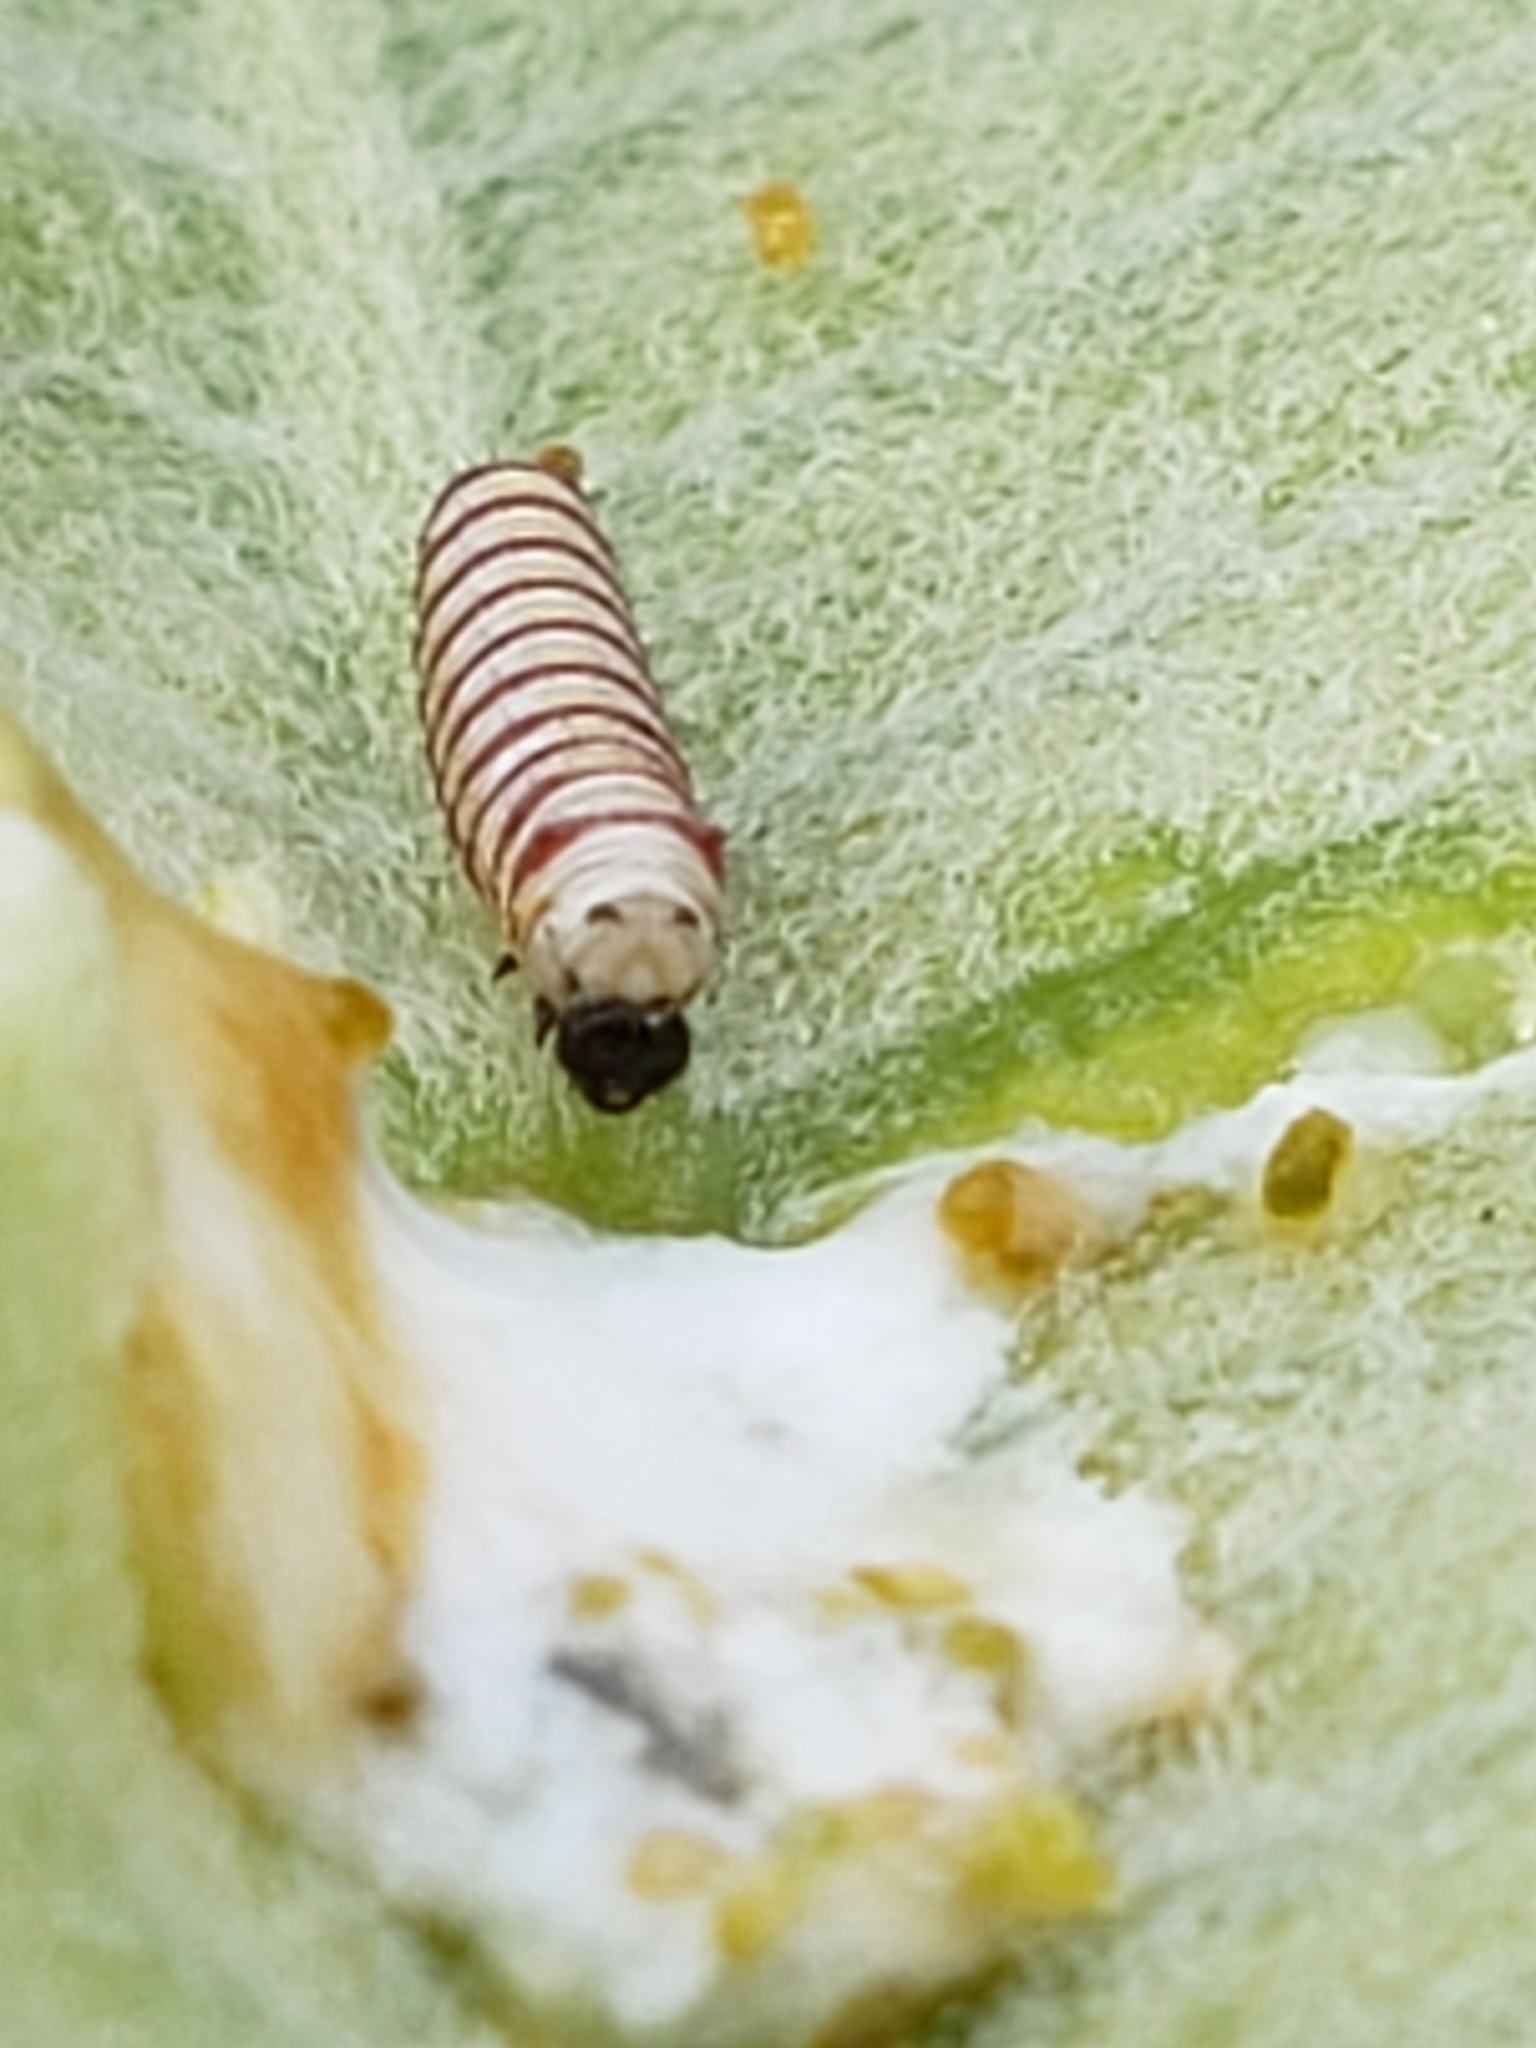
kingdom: Animalia
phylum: Arthropoda
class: Insecta
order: Lepidoptera
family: Nymphalidae
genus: Danaus
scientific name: Danaus plexippus
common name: Monarch
